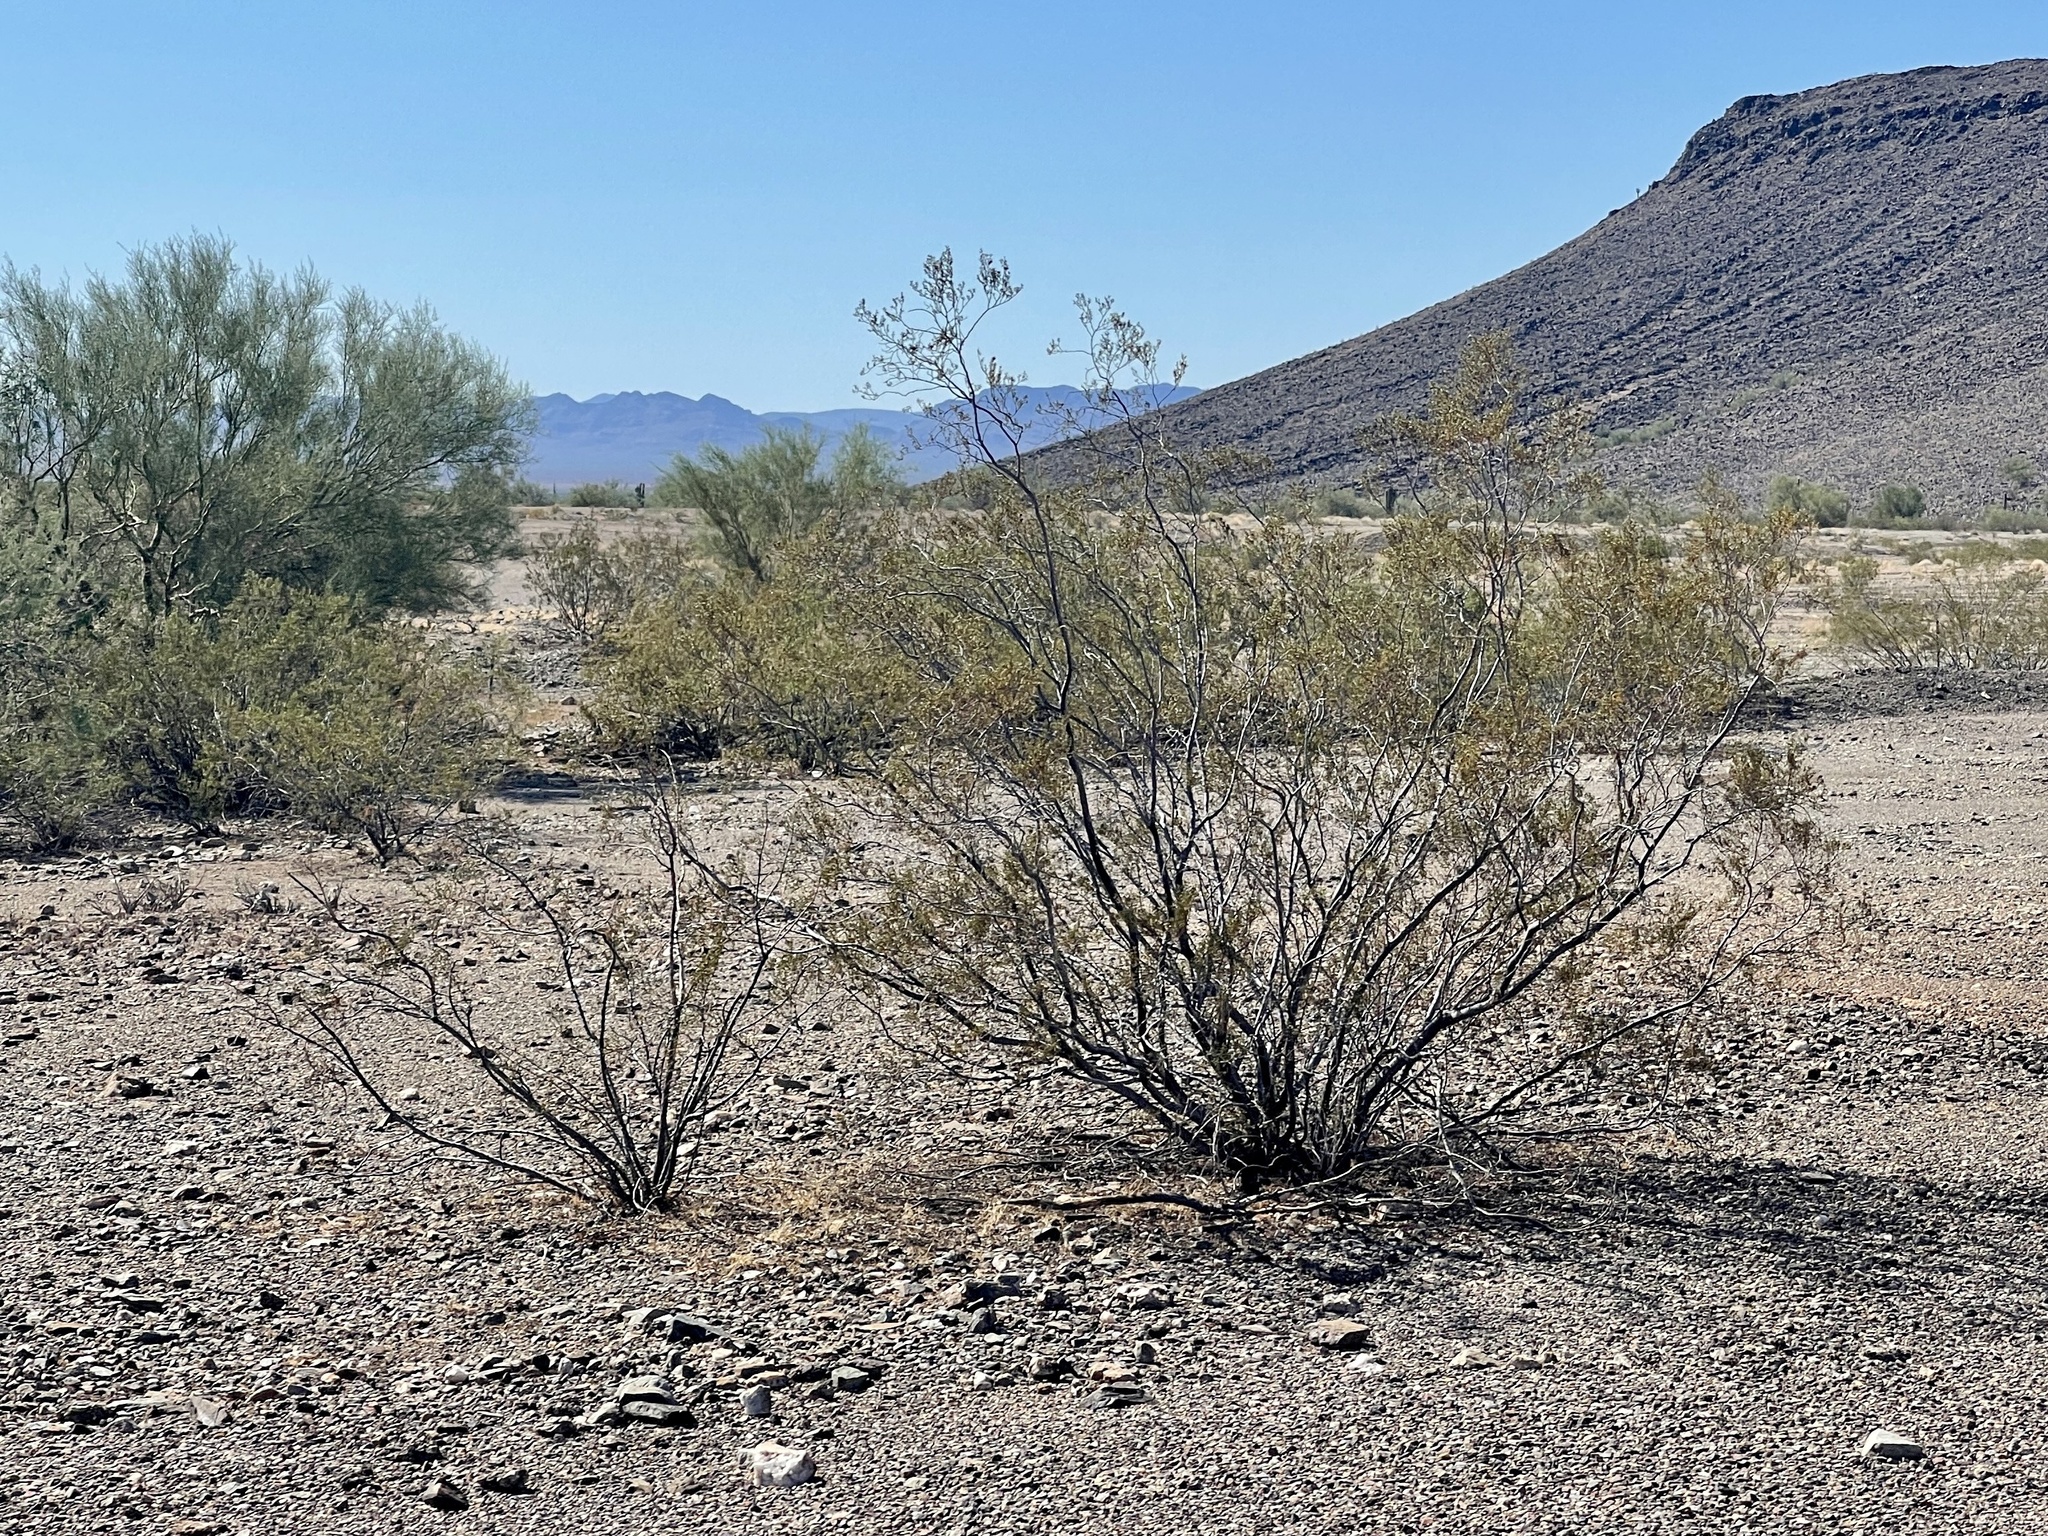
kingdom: Plantae
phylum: Tracheophyta
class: Magnoliopsida
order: Zygophyllales
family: Zygophyllaceae
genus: Larrea
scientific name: Larrea tridentata
